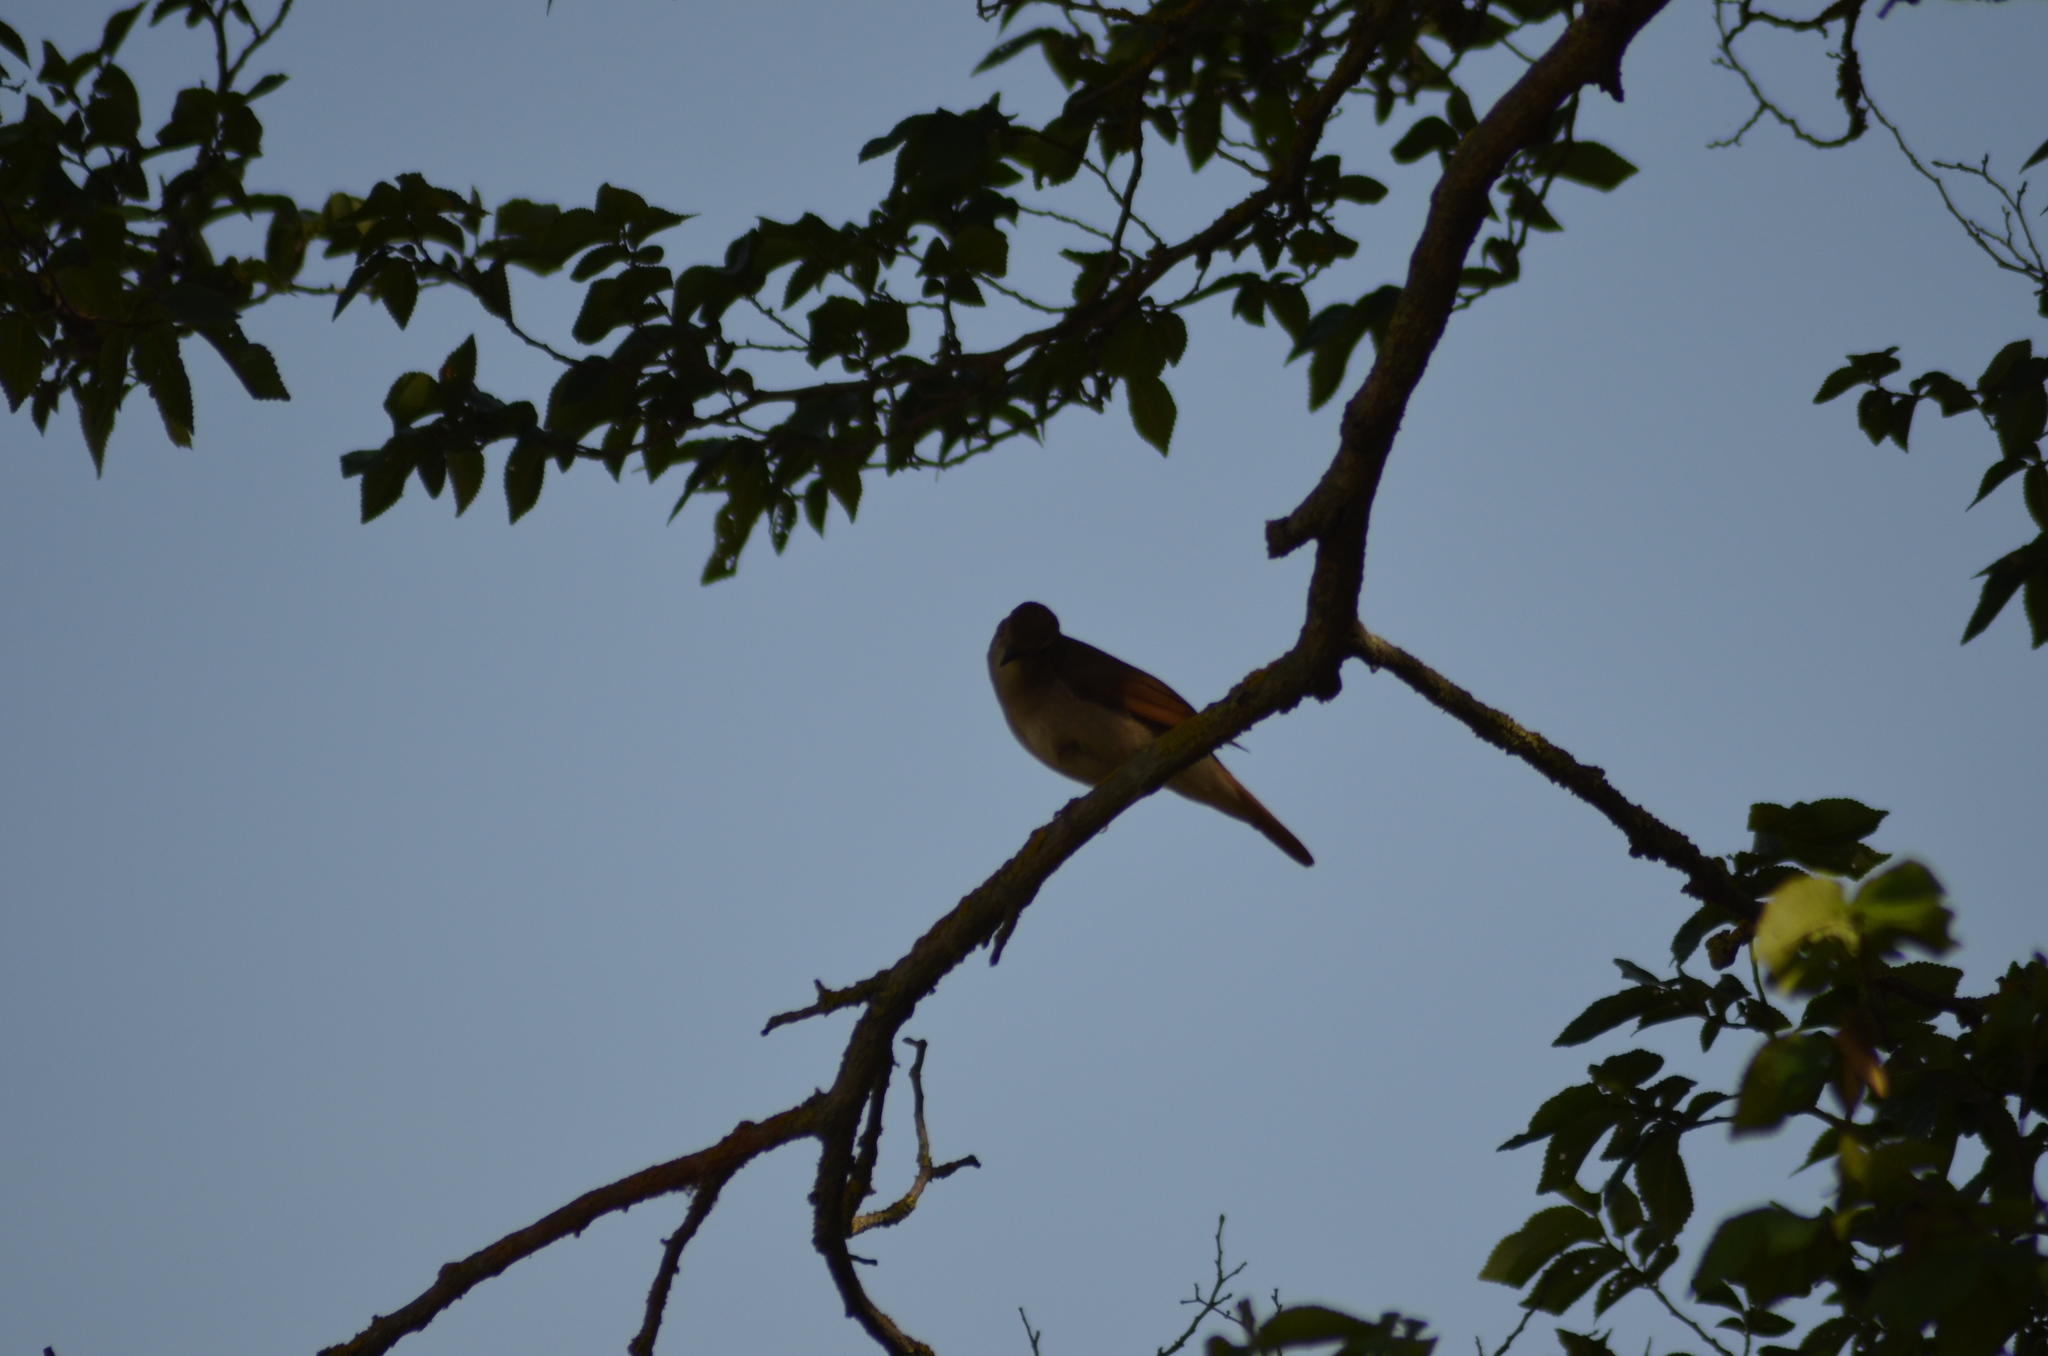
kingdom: Animalia
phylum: Chordata
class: Aves
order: Passeriformes
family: Muscicapidae
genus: Luscinia
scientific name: Luscinia megarhynchos
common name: Common nightingale
